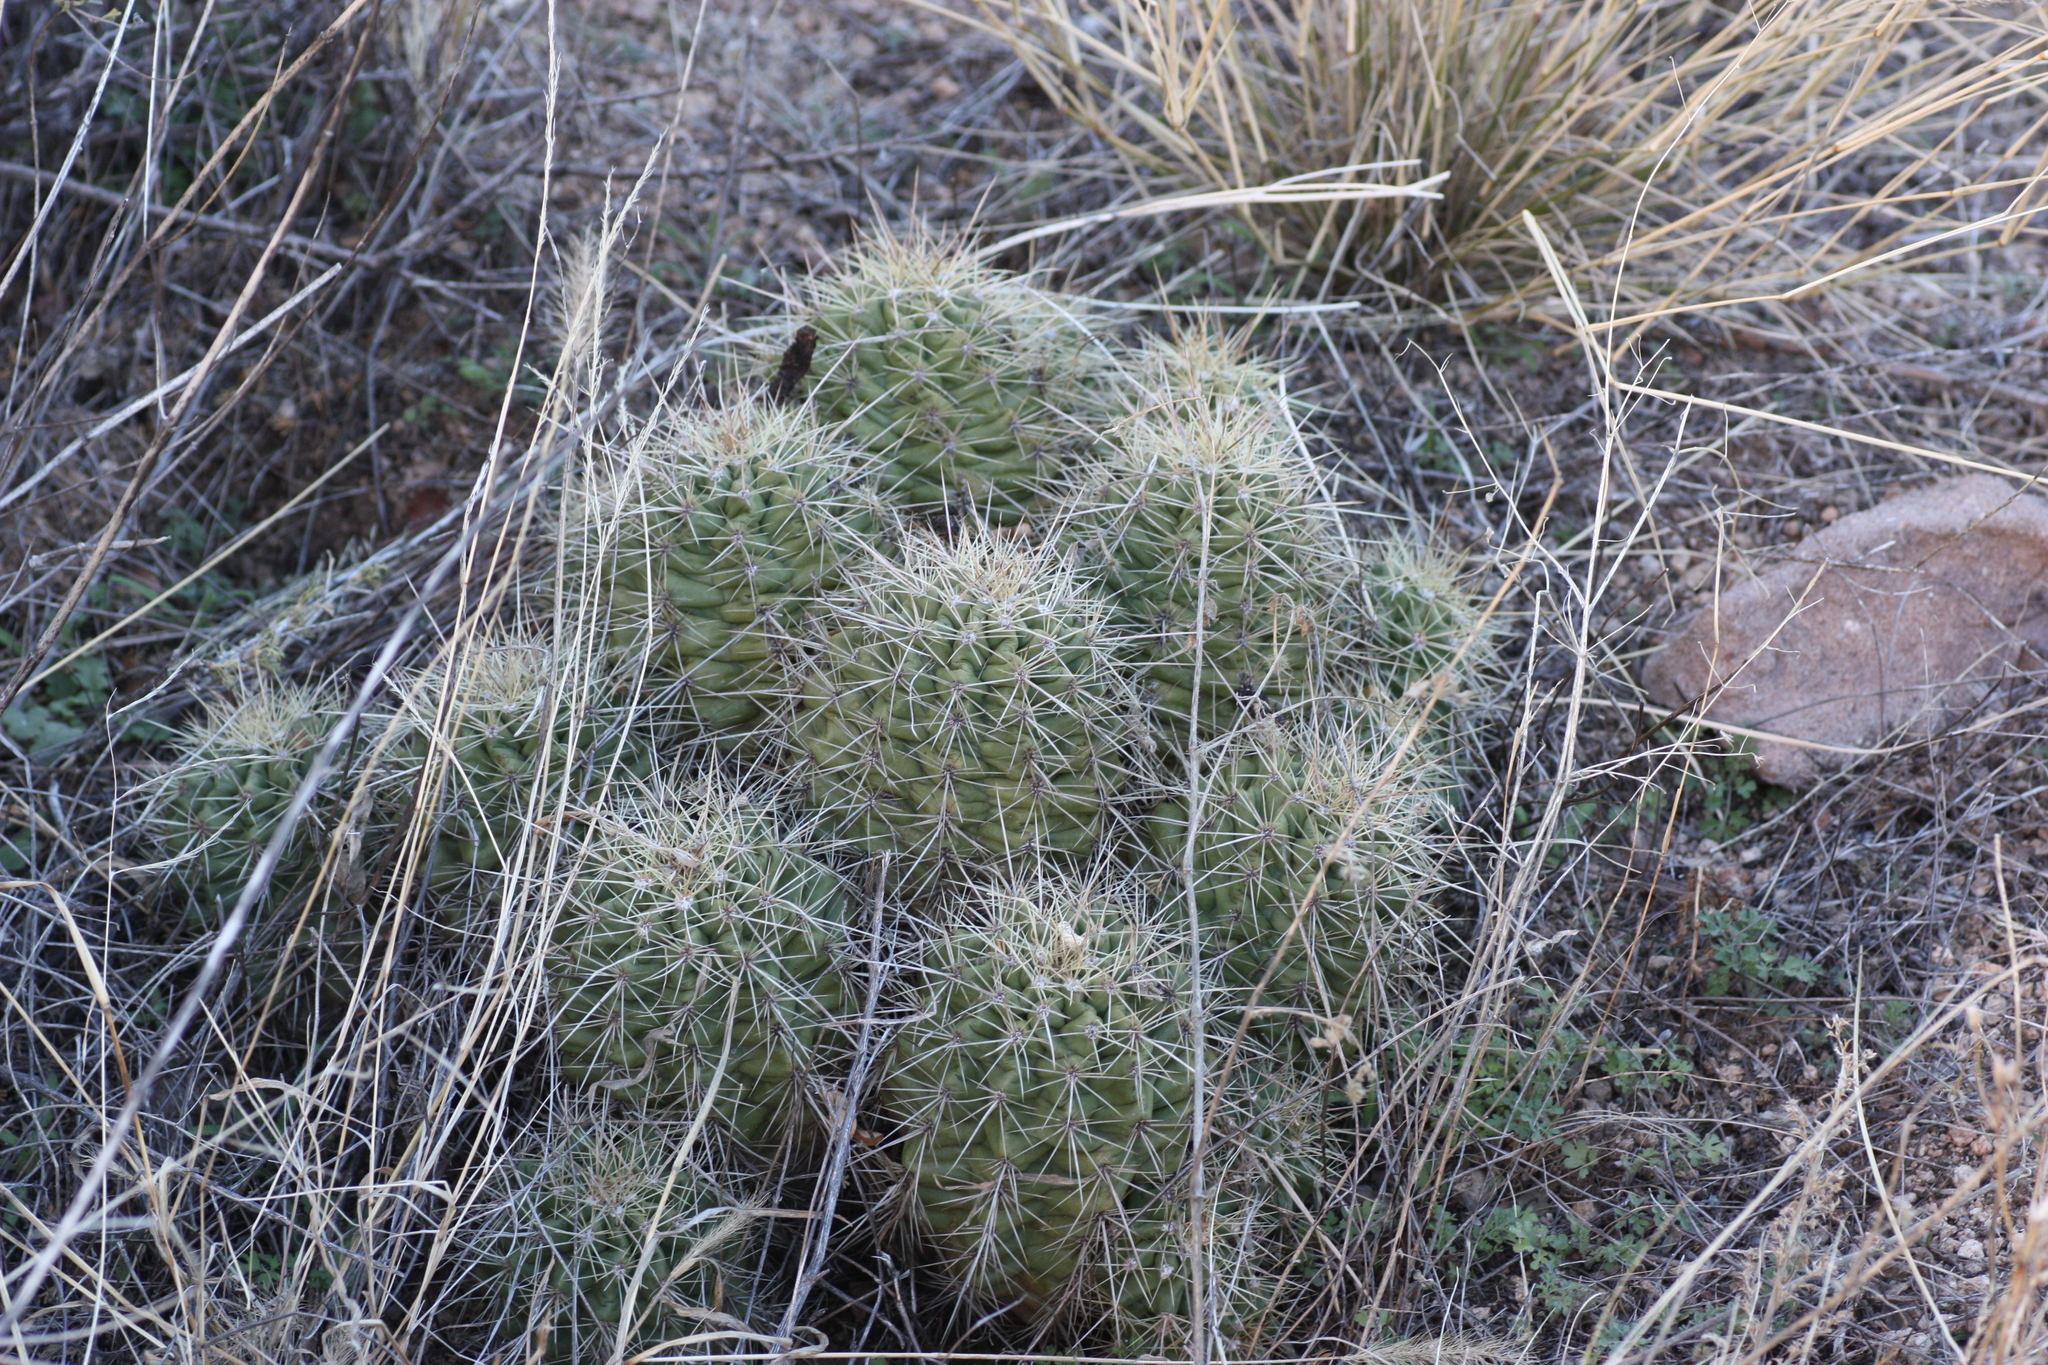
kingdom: Plantae
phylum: Tracheophyta
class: Magnoliopsida
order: Caryophyllales
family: Cactaceae
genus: Echinocereus
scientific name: Echinocereus coccineus
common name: Scarlet hedgehog cactus
